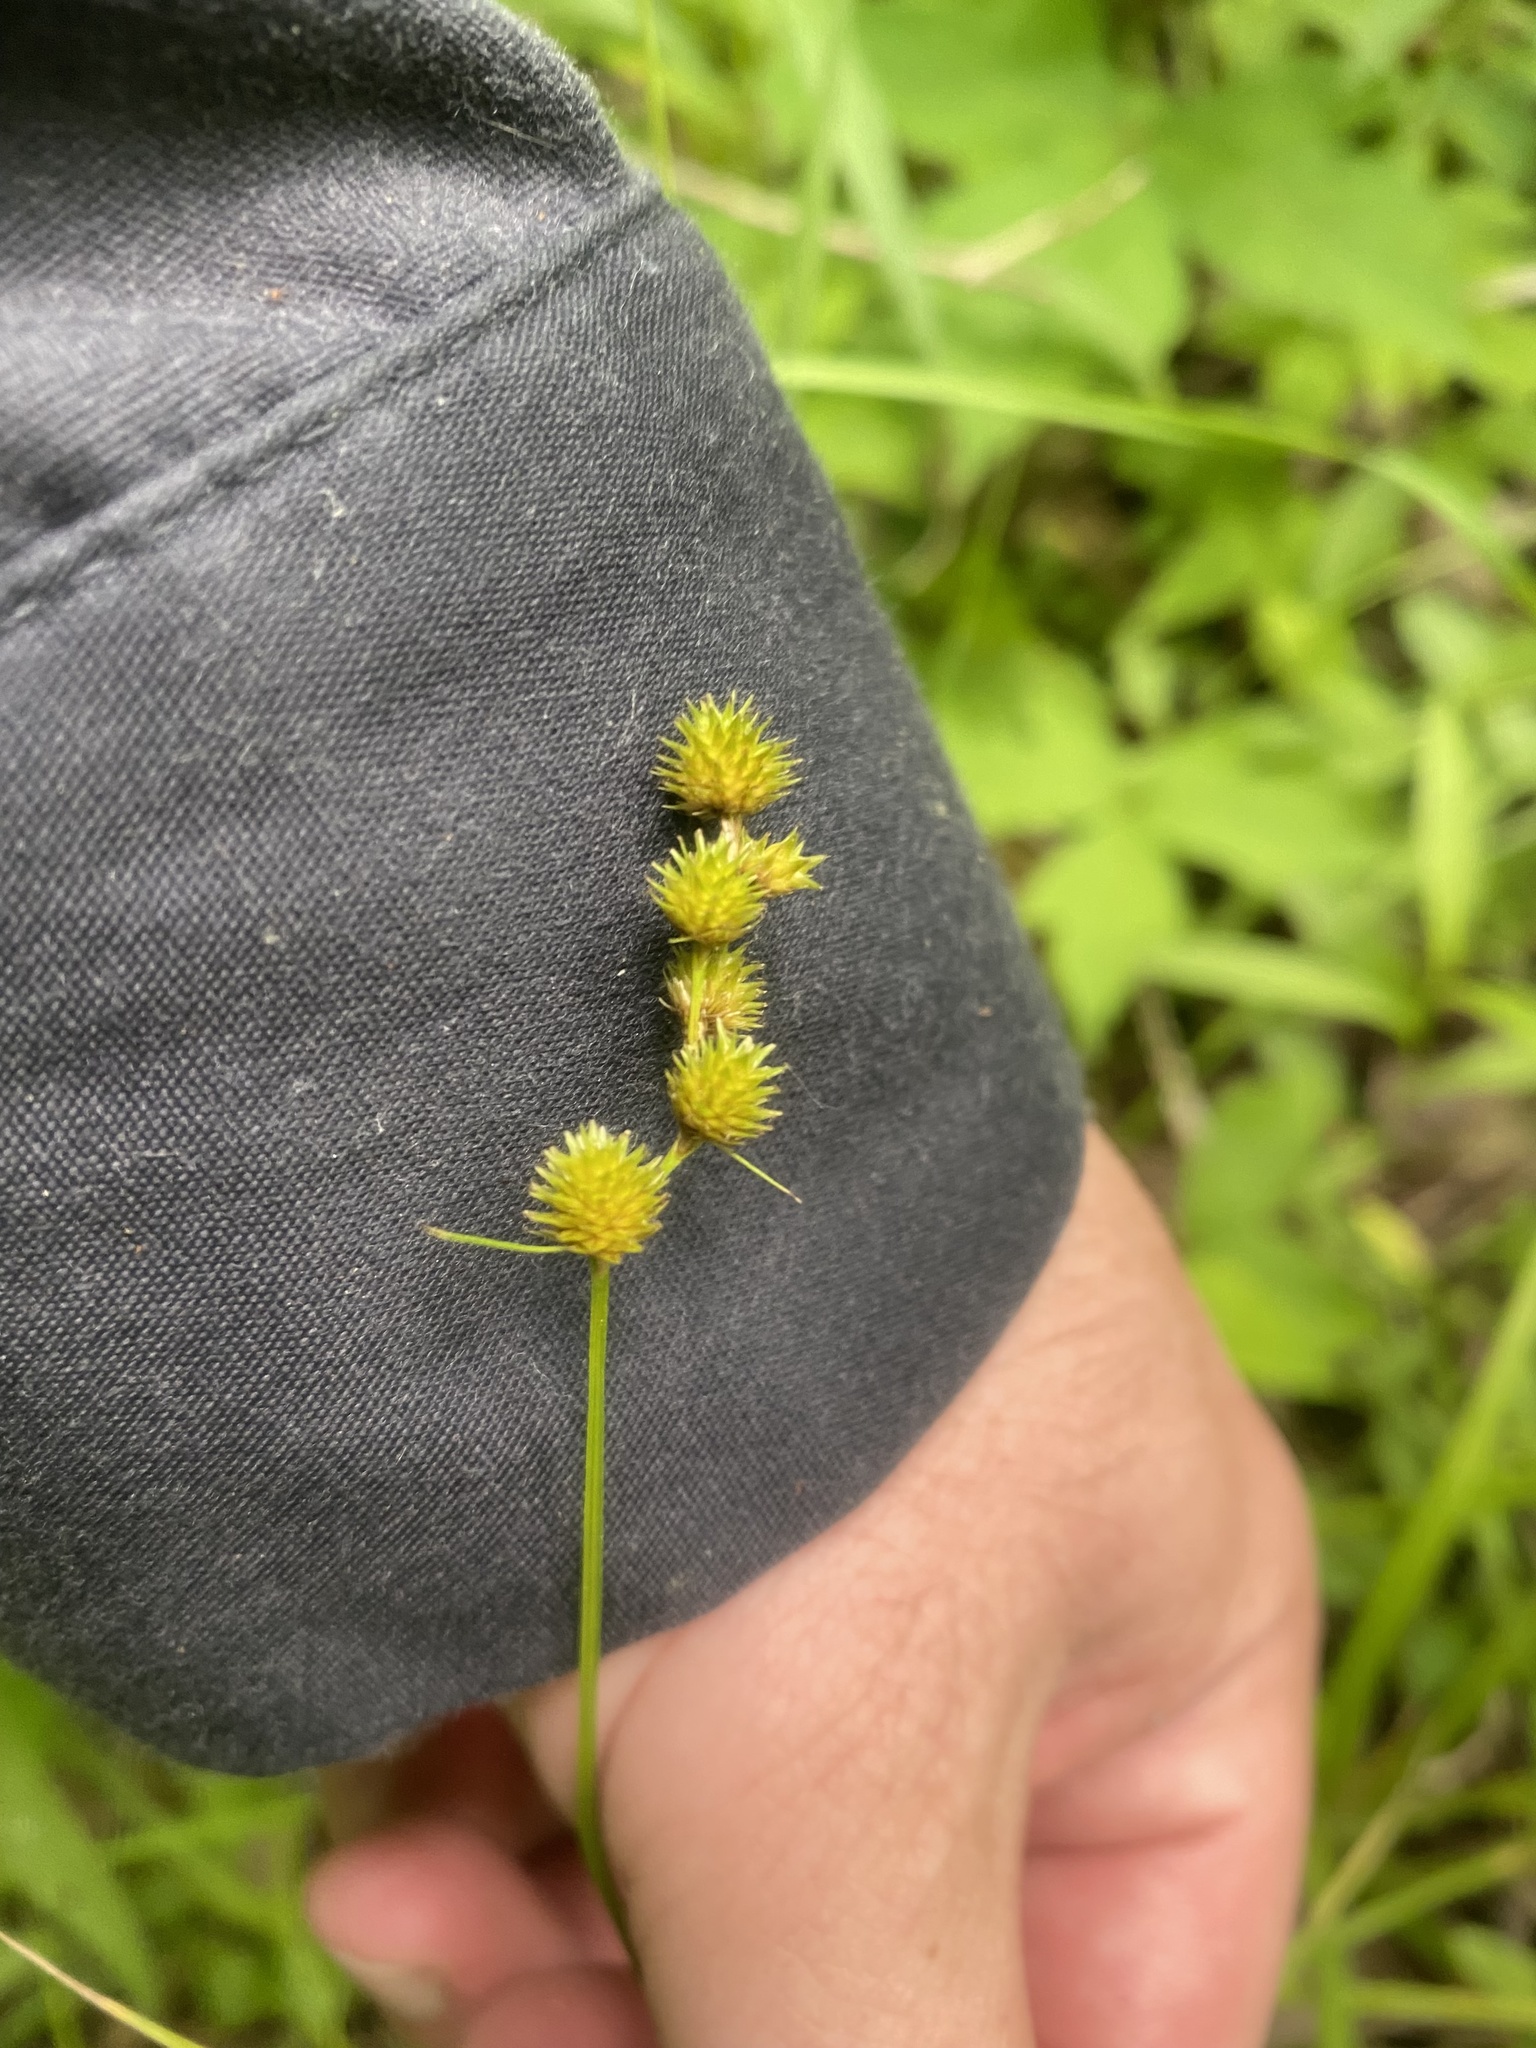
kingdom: Plantae
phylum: Tracheophyta
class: Liliopsida
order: Poales
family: Cyperaceae
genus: Carex
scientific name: Carex cristatella
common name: Crested oval sedge
